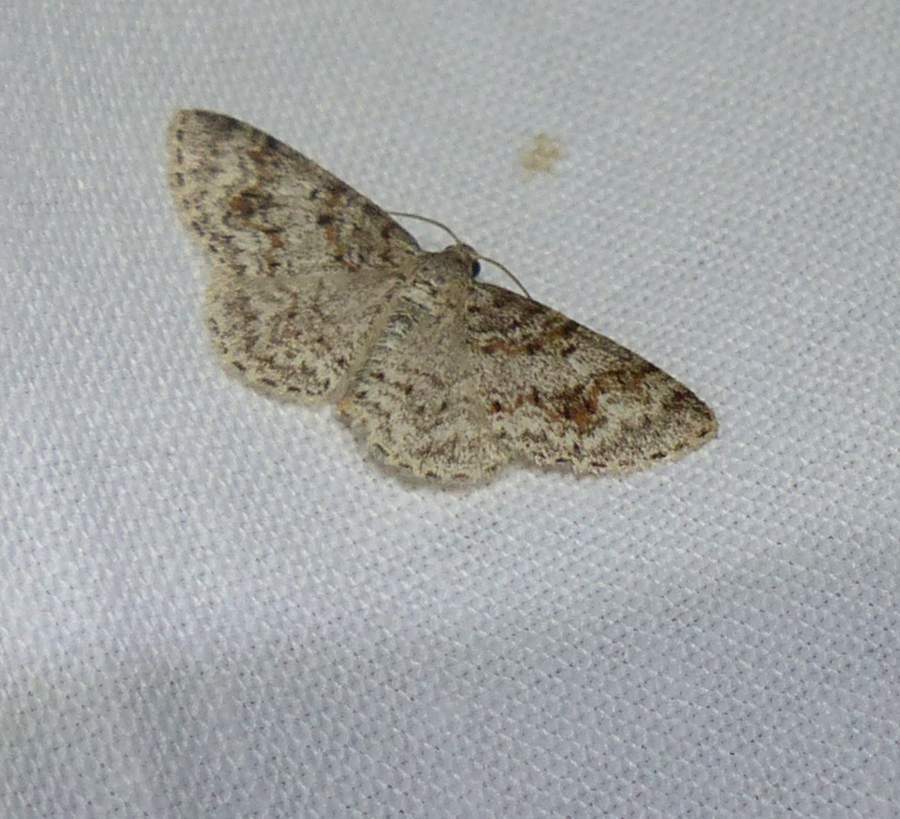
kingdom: Animalia
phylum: Arthropoda
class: Insecta
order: Lepidoptera
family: Geometridae
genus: Hydrelia
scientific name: Hydrelia inornata
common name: Unadorned carpet moth
